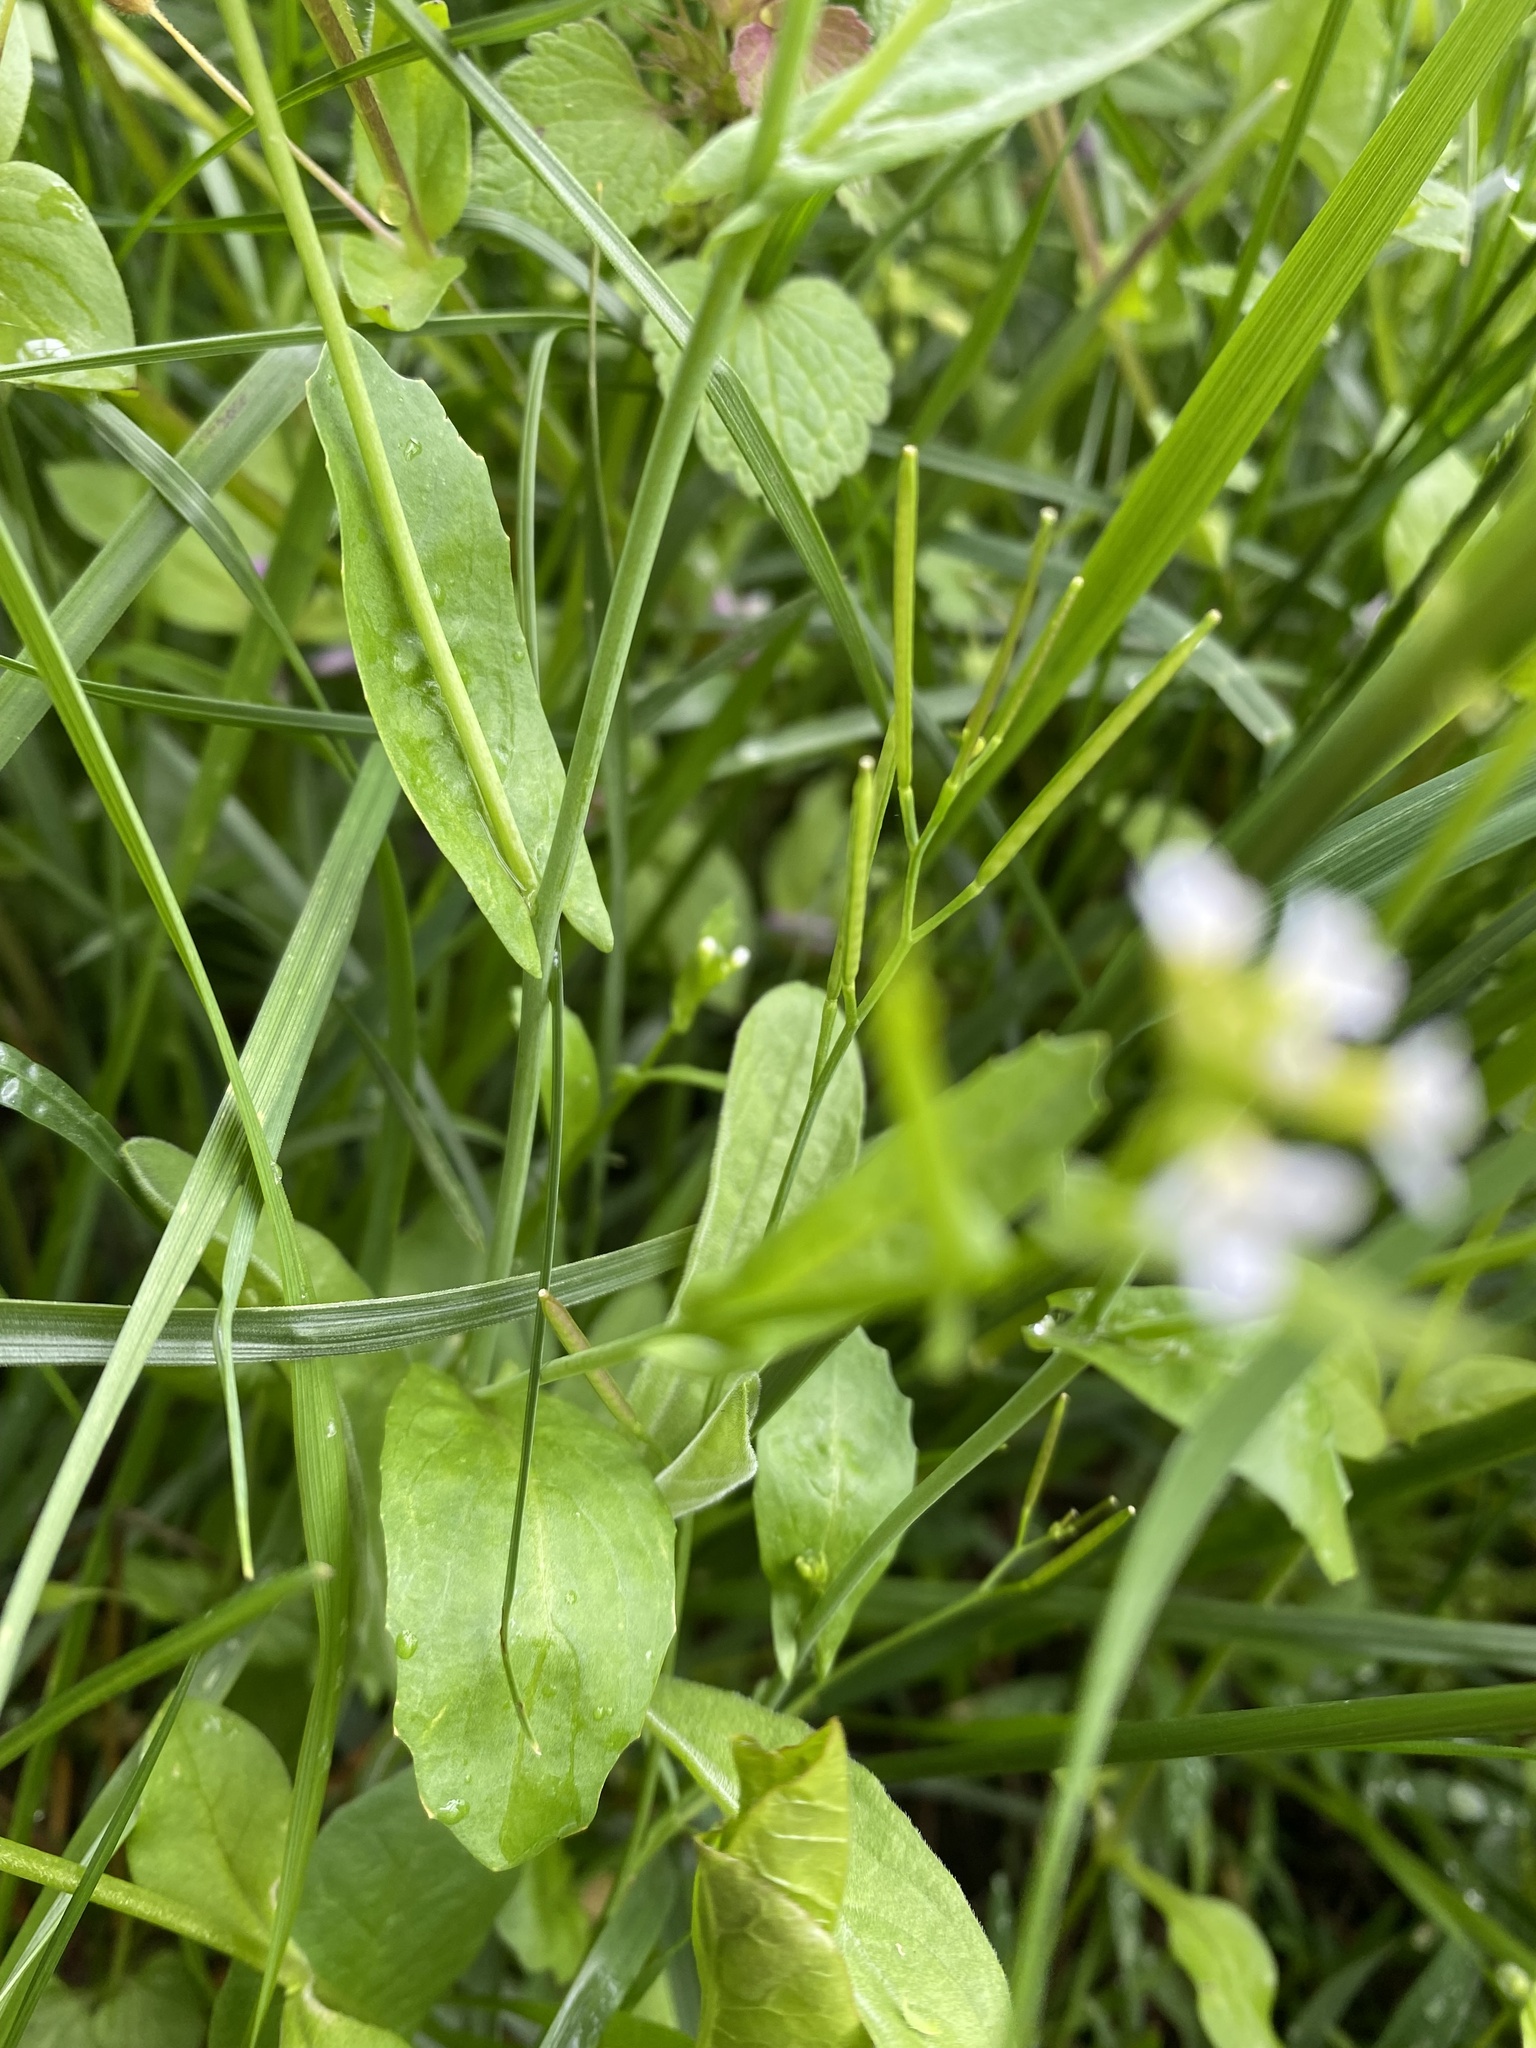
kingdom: Plantae
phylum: Tracheophyta
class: Magnoliopsida
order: Brassicales
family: Brassicaceae
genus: Calepina
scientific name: Calepina irregularis
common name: White ballmustard
